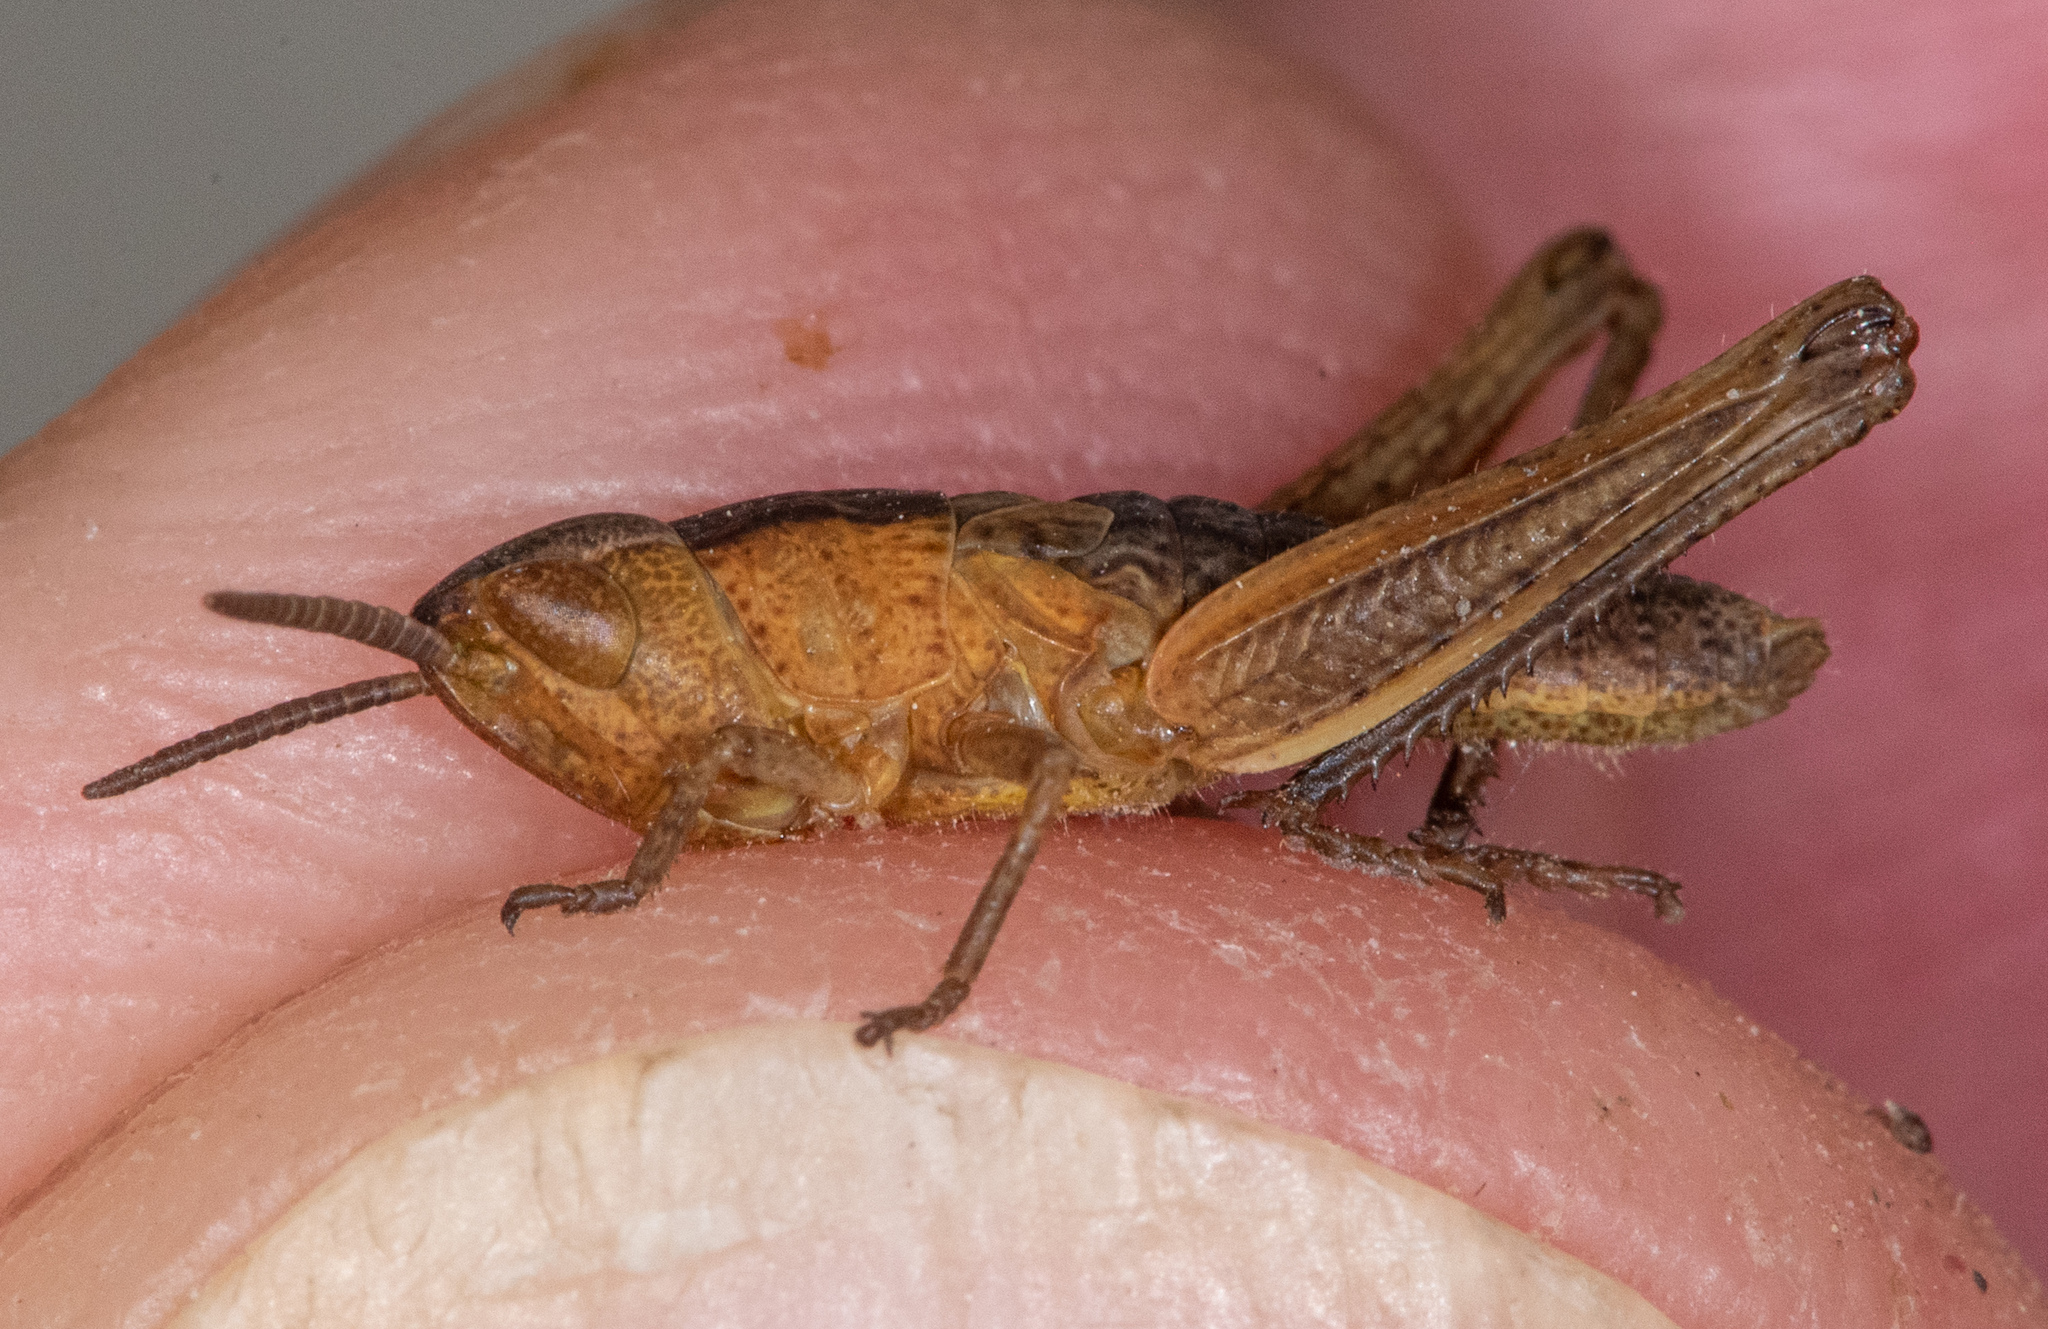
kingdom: Animalia
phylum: Arthropoda
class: Insecta
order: Orthoptera
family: Acrididae
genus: Pseudochorthippus
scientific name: Pseudochorthippus curtipennis
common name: Marsh meadow grasshopper
